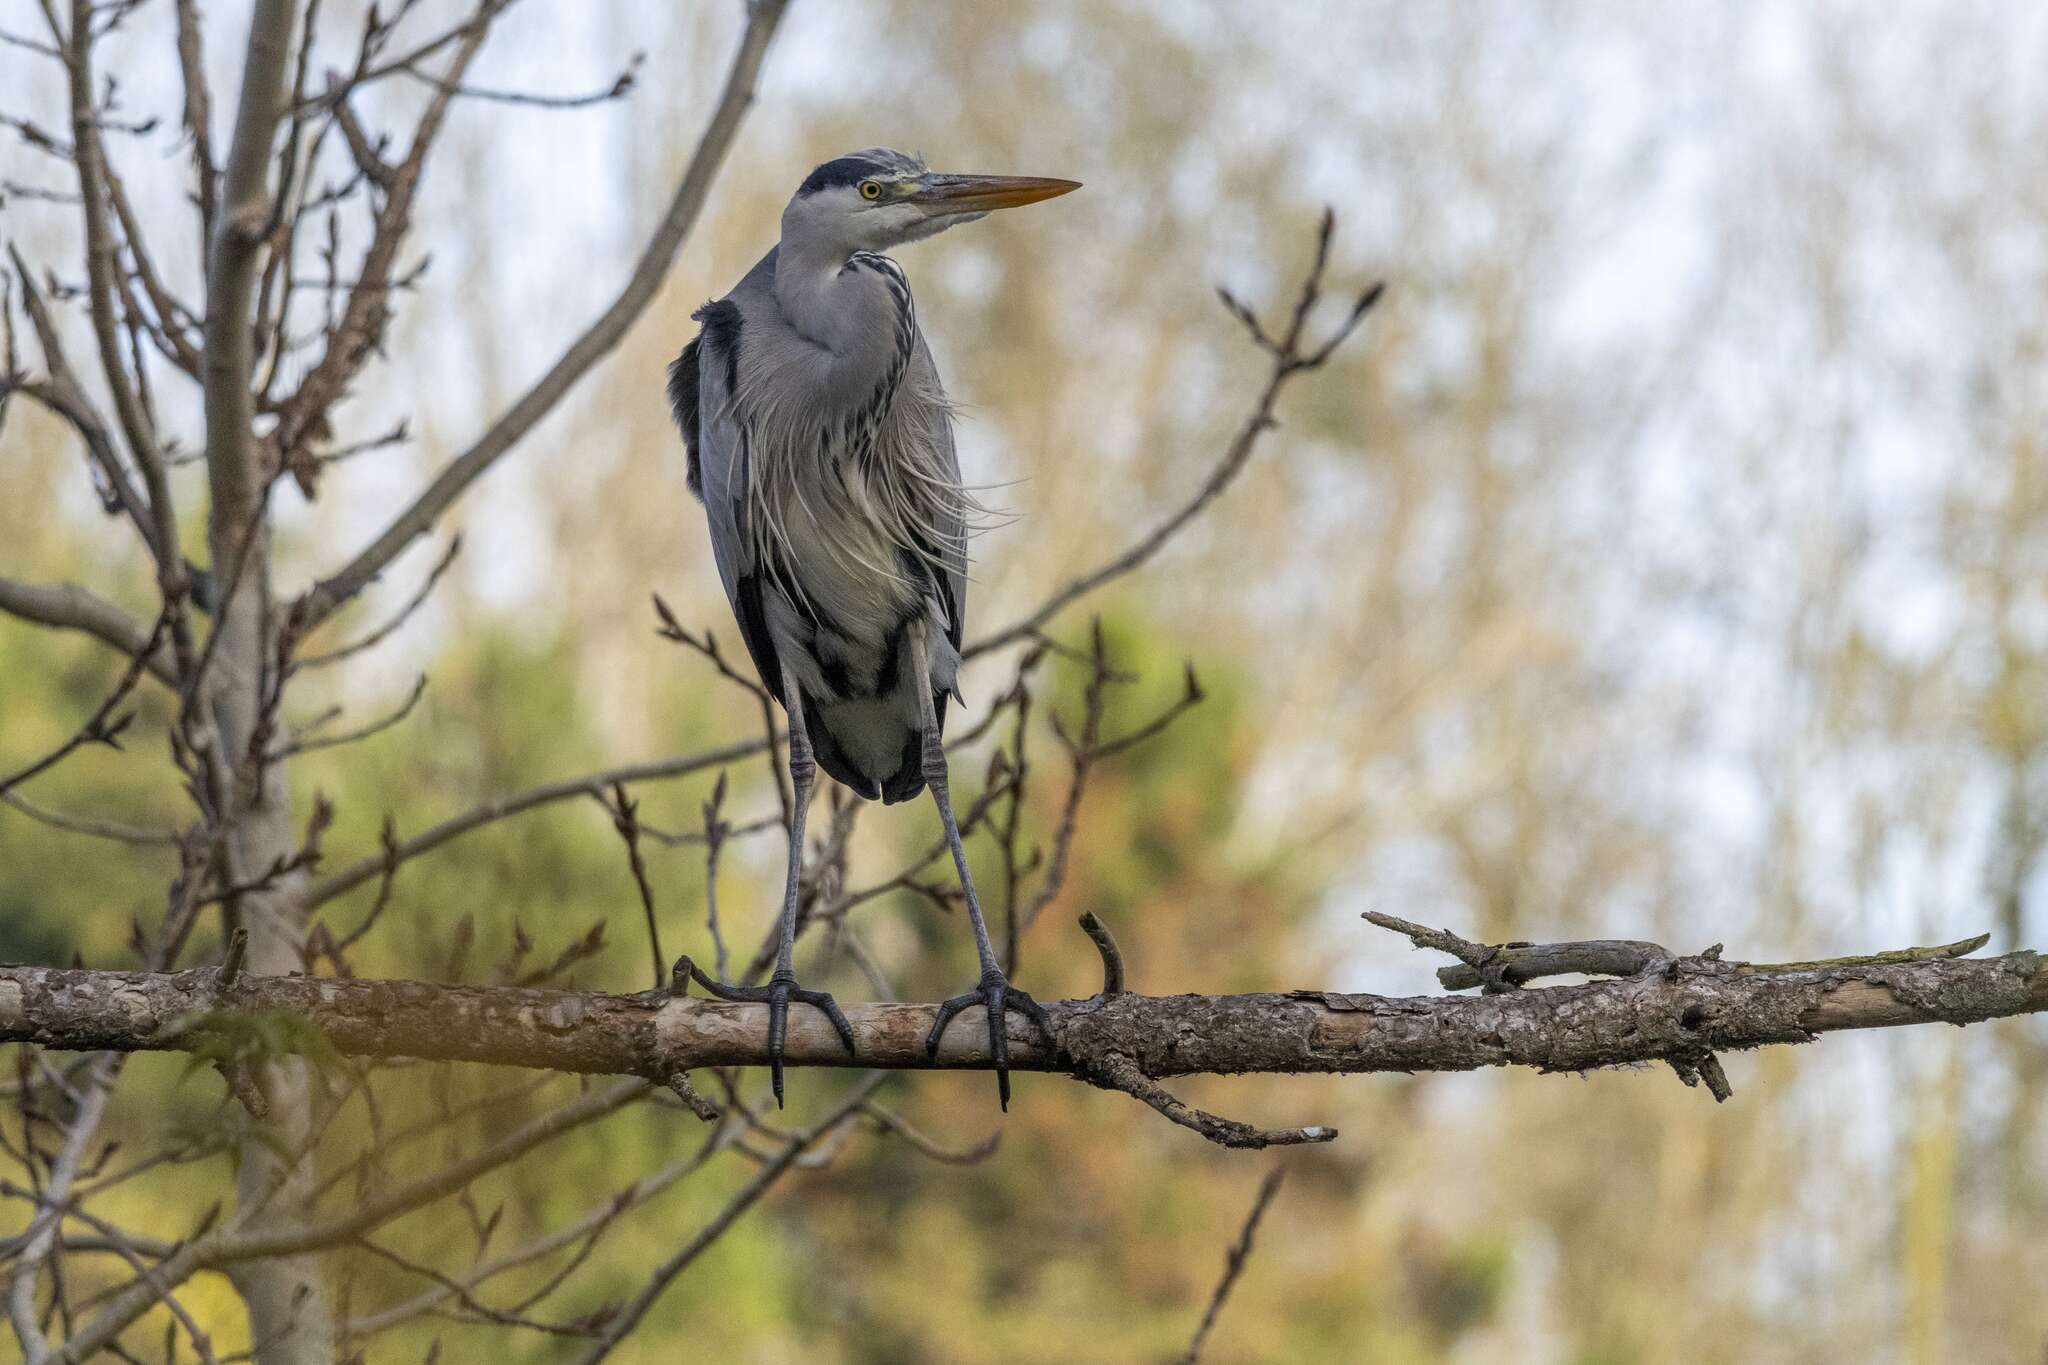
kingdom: Animalia
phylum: Chordata
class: Aves
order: Pelecaniformes
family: Ardeidae
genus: Ardea
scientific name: Ardea cinerea
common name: Grey heron
